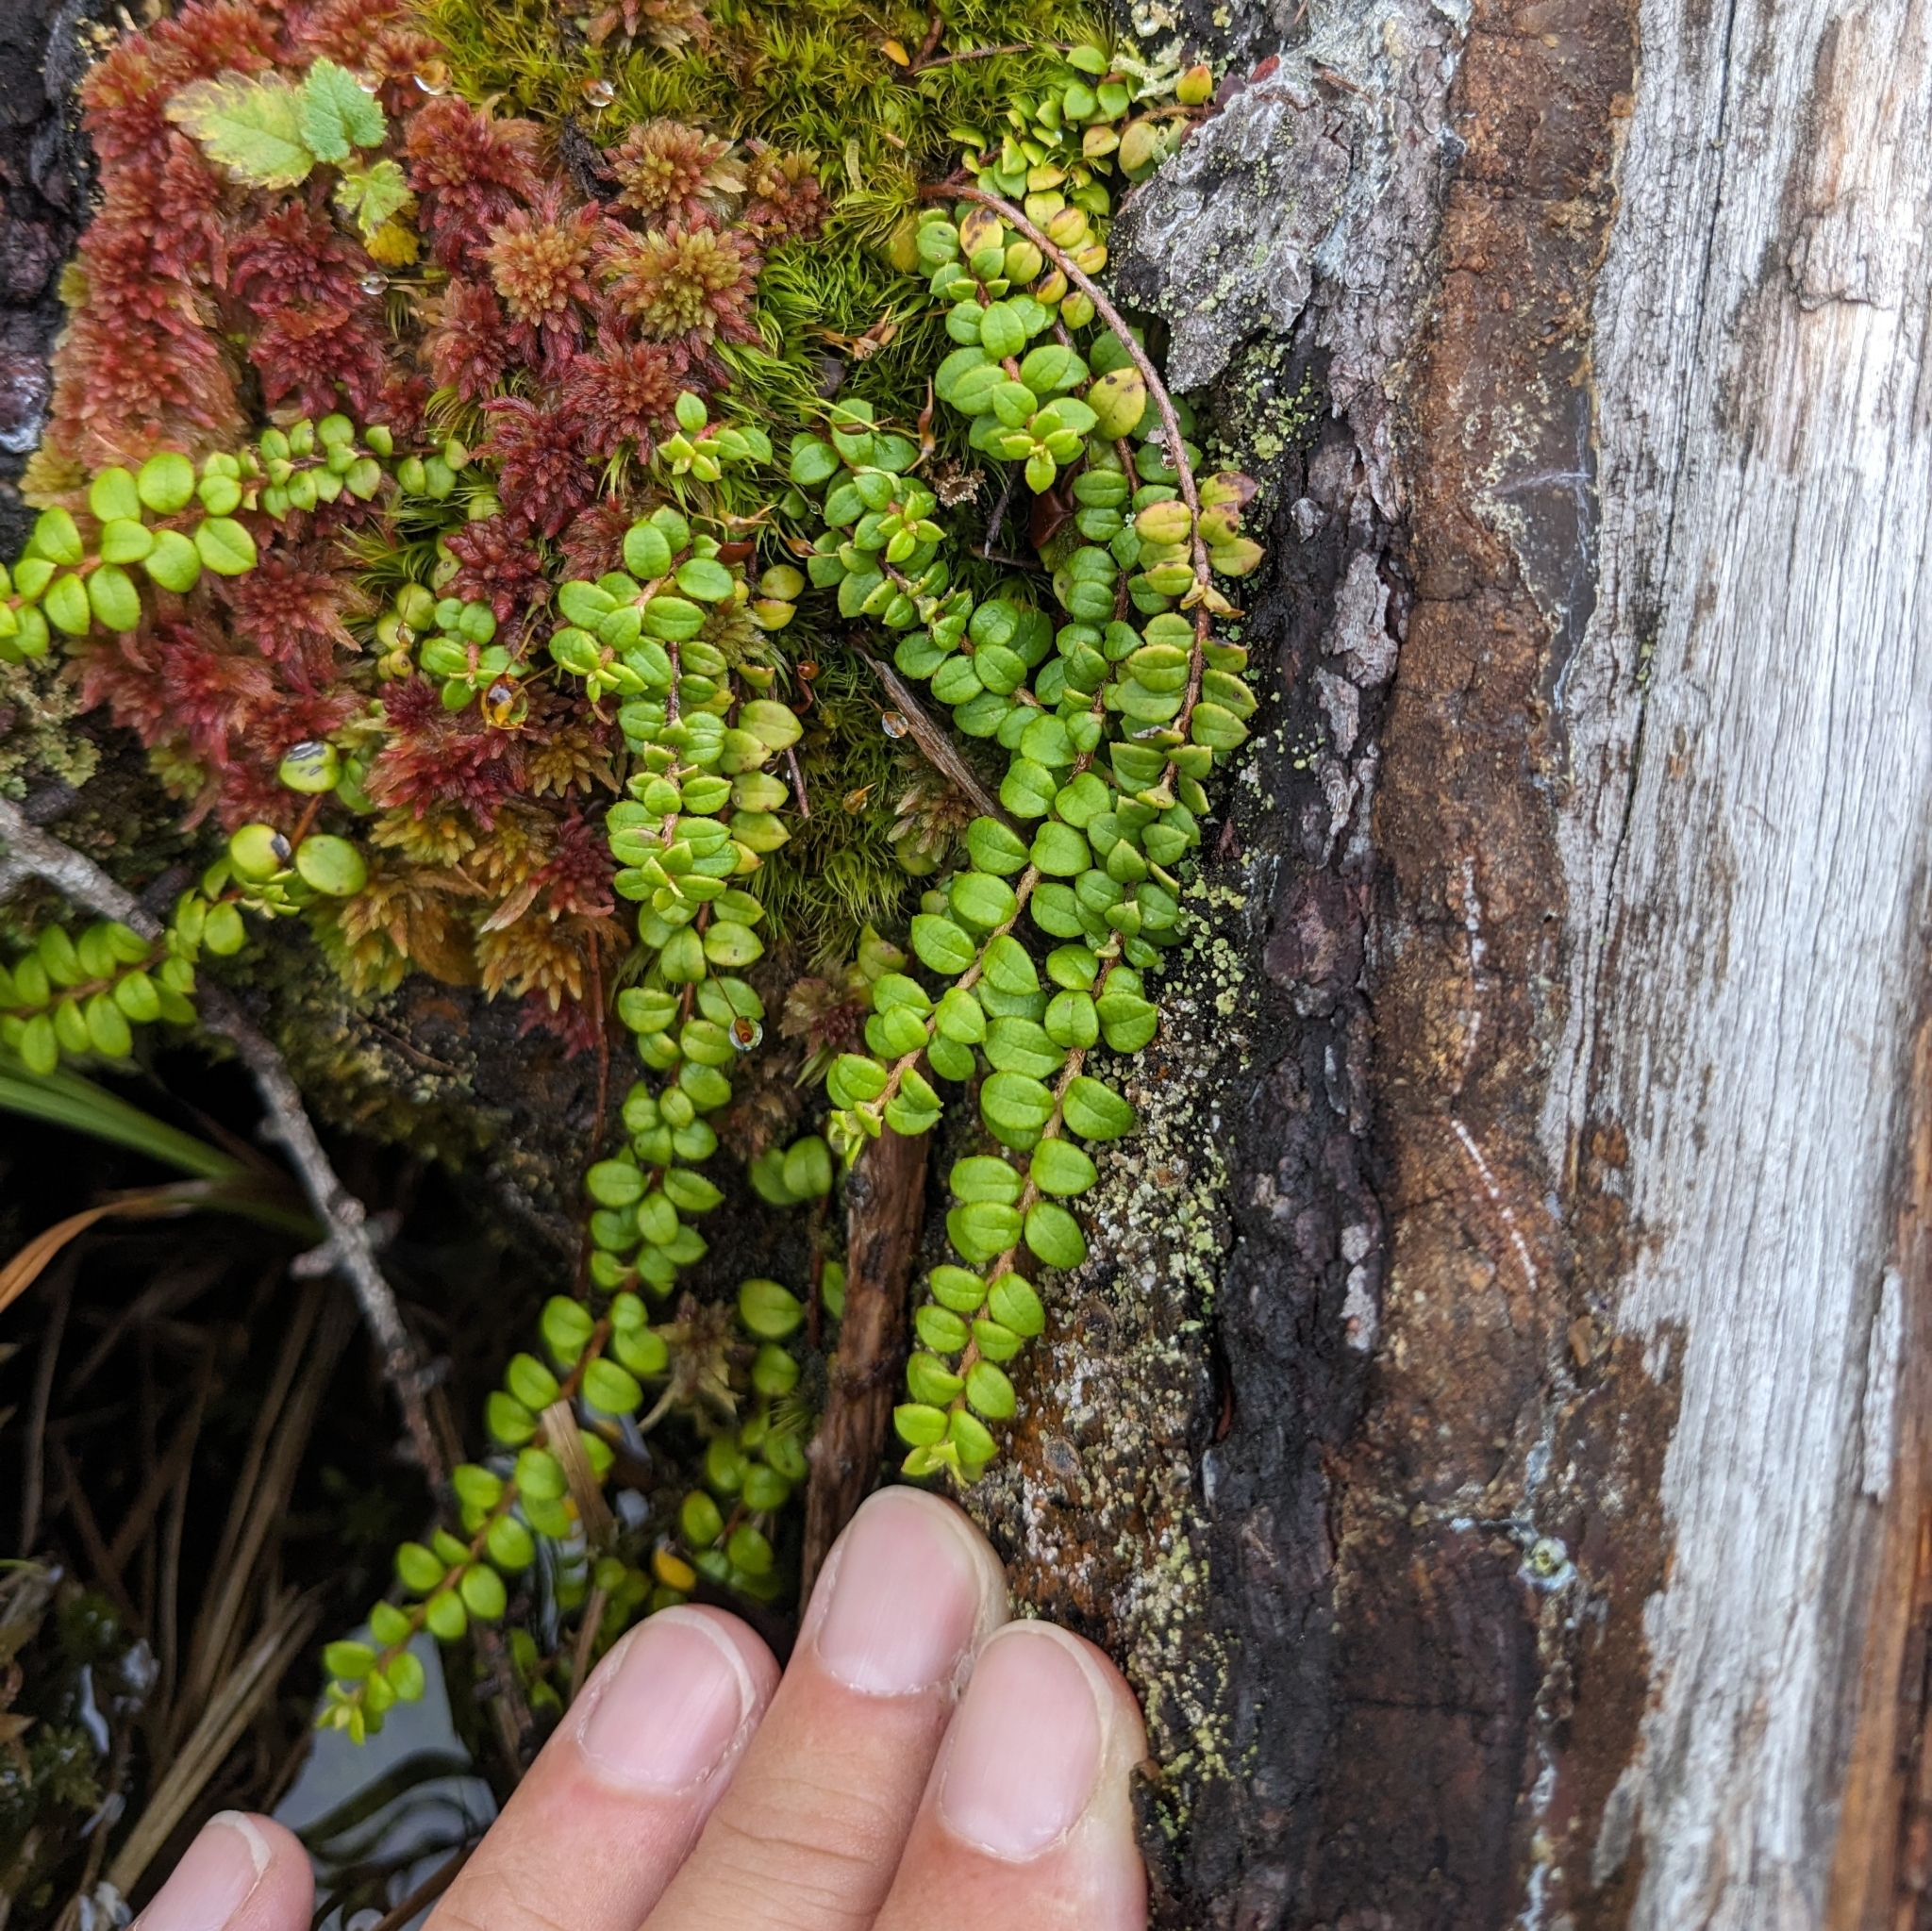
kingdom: Plantae
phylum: Tracheophyta
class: Magnoliopsida
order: Ericales
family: Ericaceae
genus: Gaultheria
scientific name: Gaultheria hispidula
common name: Cancer wintergreen
